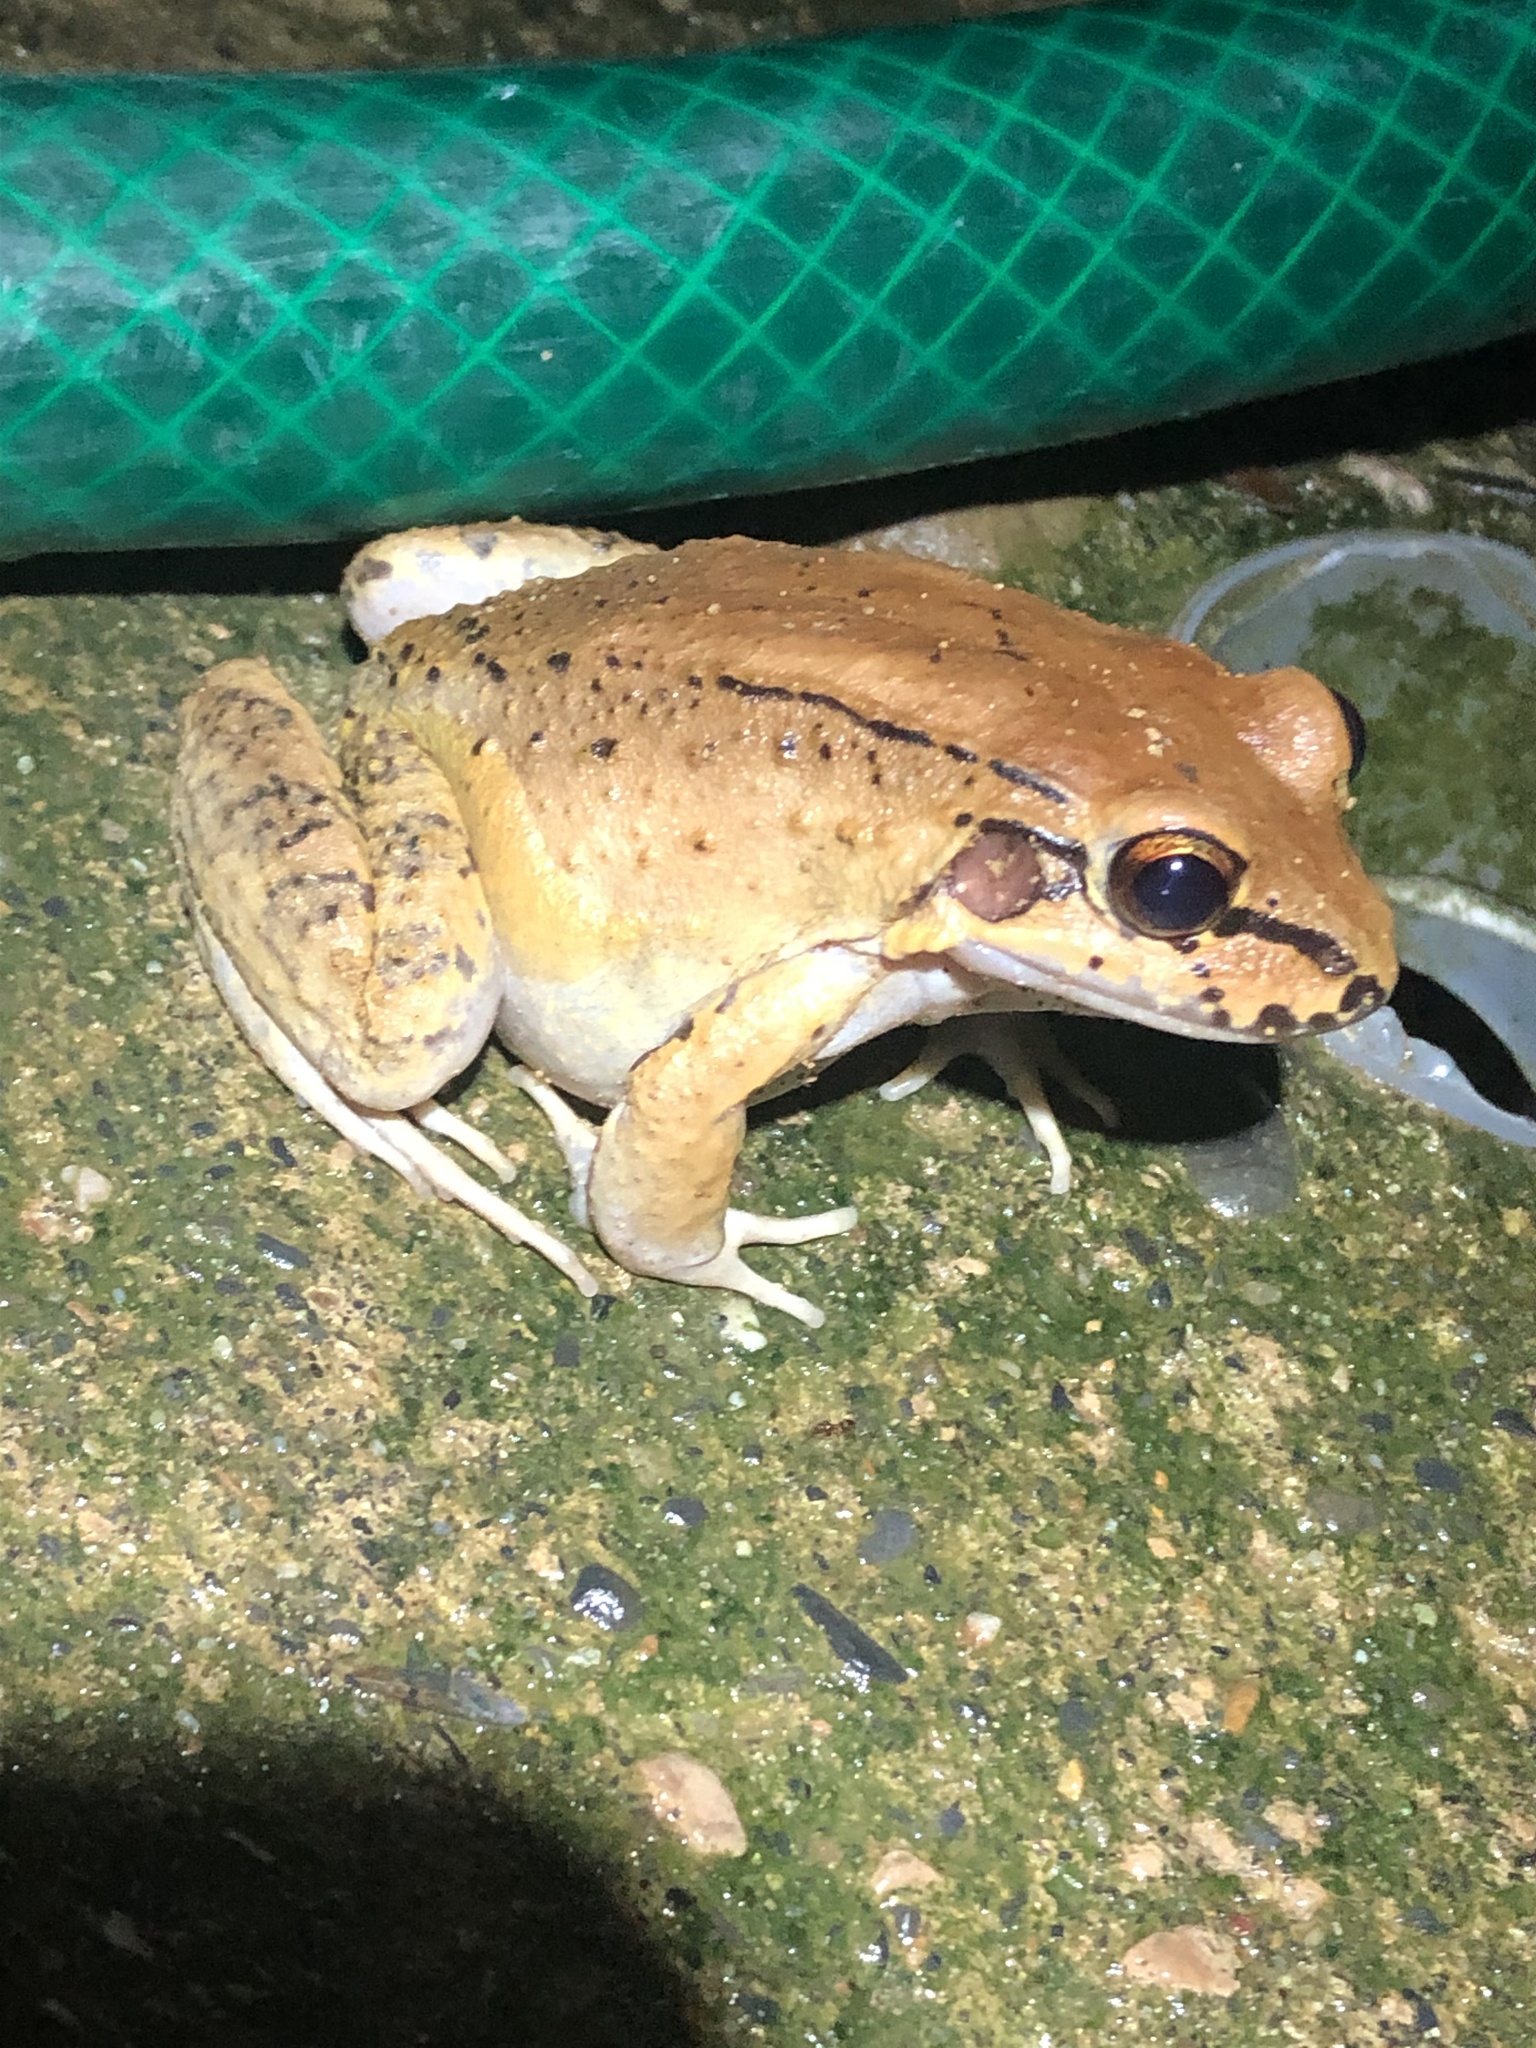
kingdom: Animalia
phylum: Chordata
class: Amphibia
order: Anura
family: Leptodactylidae
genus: Leptodactylus
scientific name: Leptodactylus rhodonotus
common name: Peru white-lipped frog
